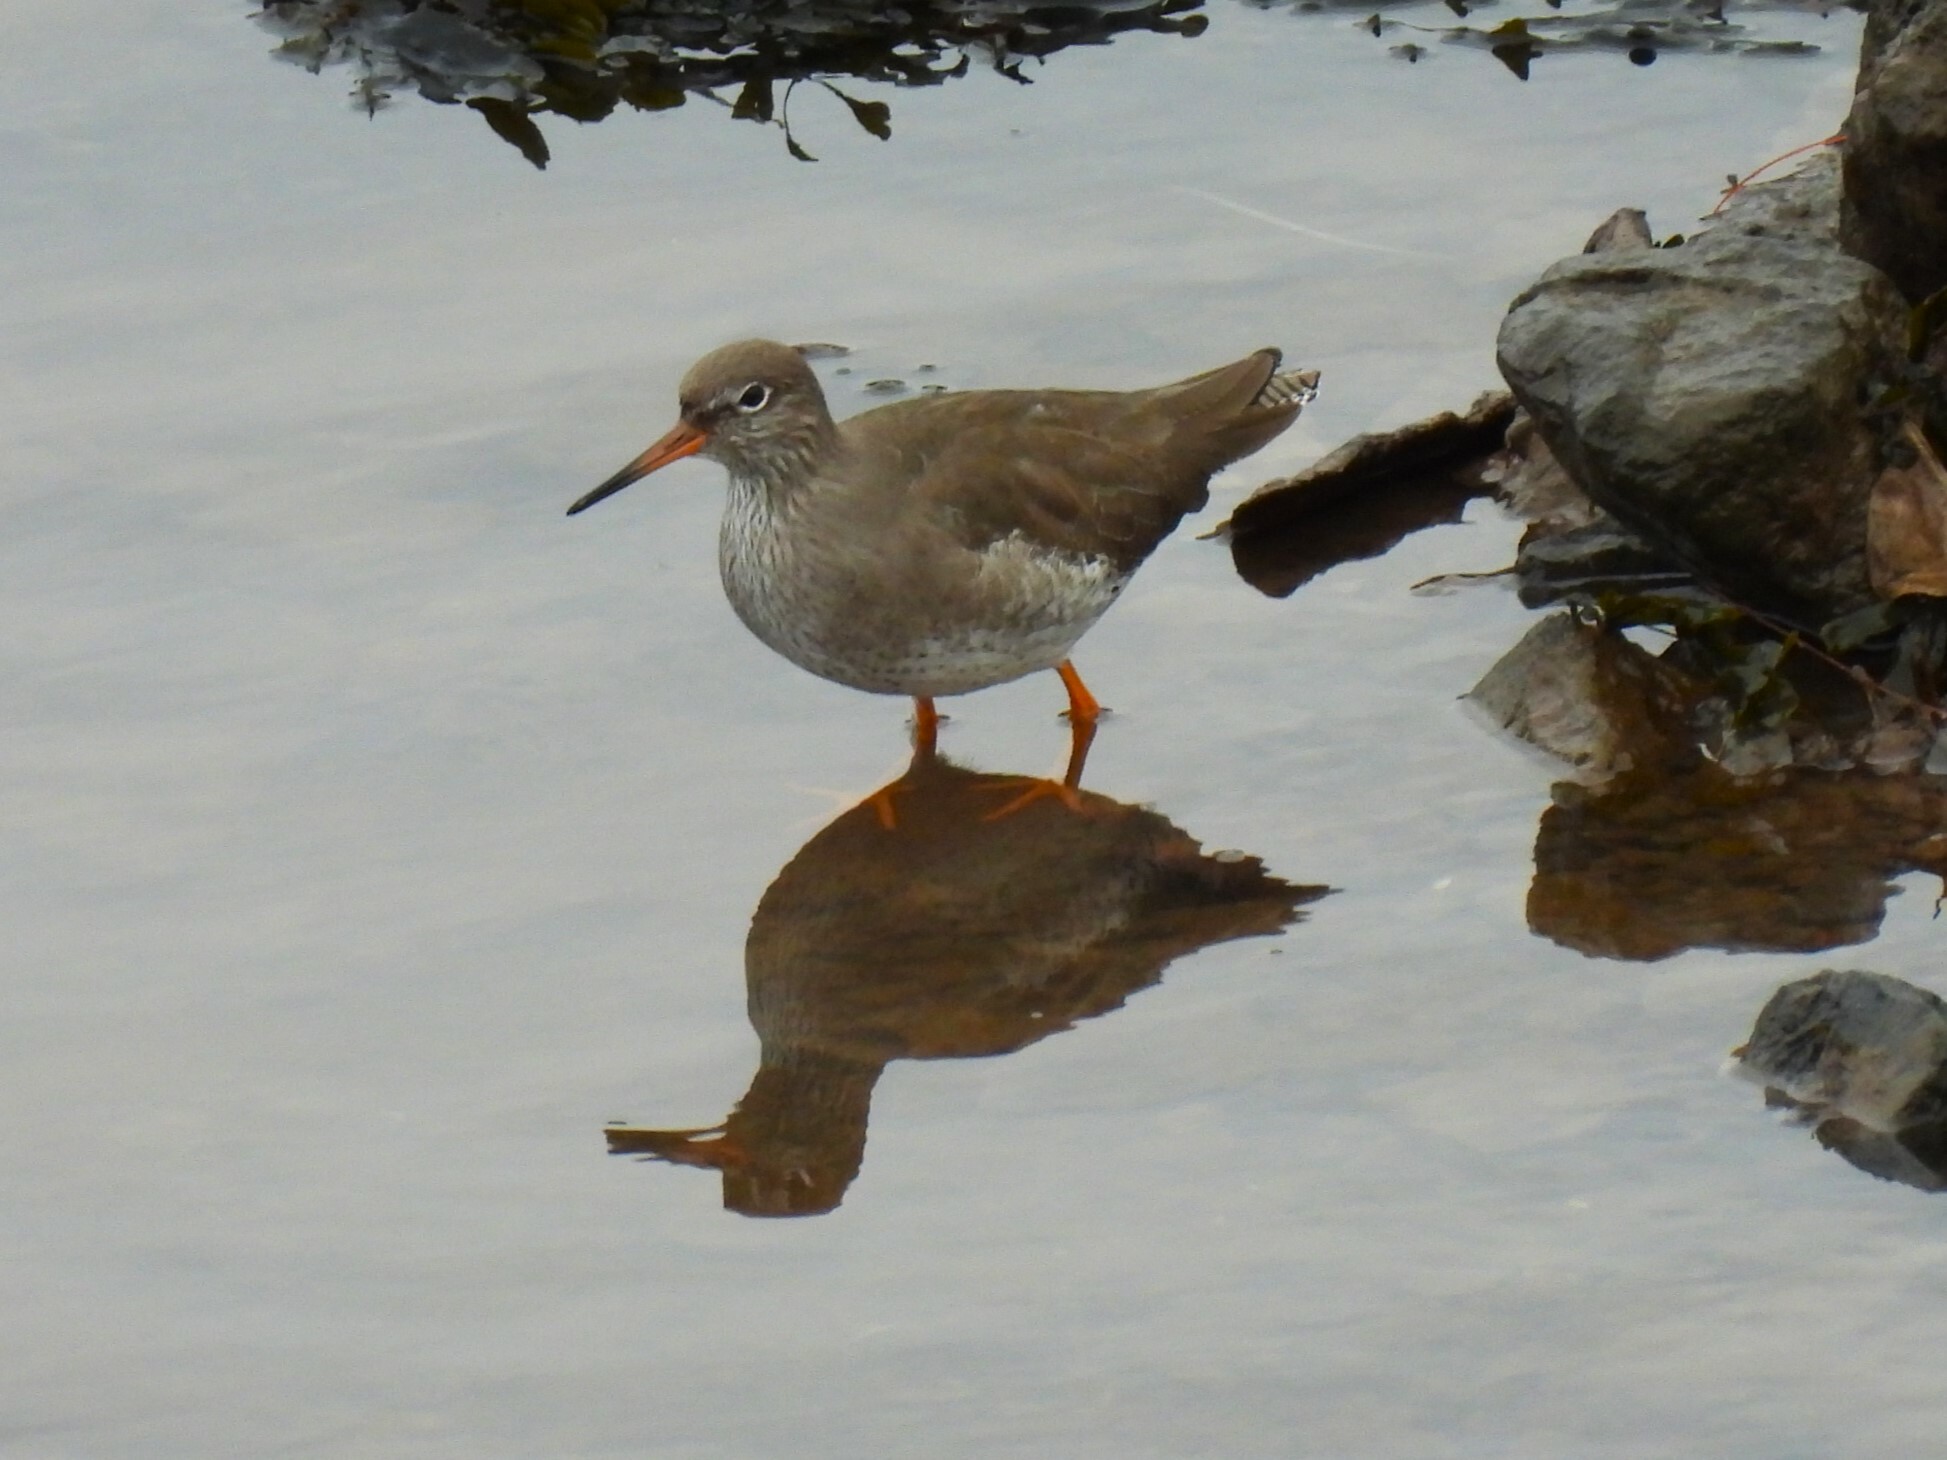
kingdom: Animalia
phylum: Chordata
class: Aves
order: Charadriiformes
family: Scolopacidae
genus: Tringa
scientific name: Tringa totanus
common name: Common redshank
